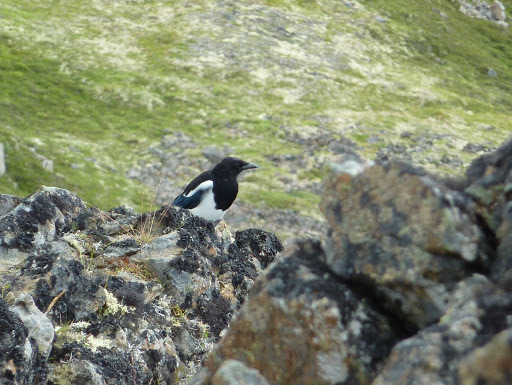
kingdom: Animalia
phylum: Chordata
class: Aves
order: Passeriformes
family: Corvidae
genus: Pica
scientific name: Pica hudsonia
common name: Black-billed magpie
